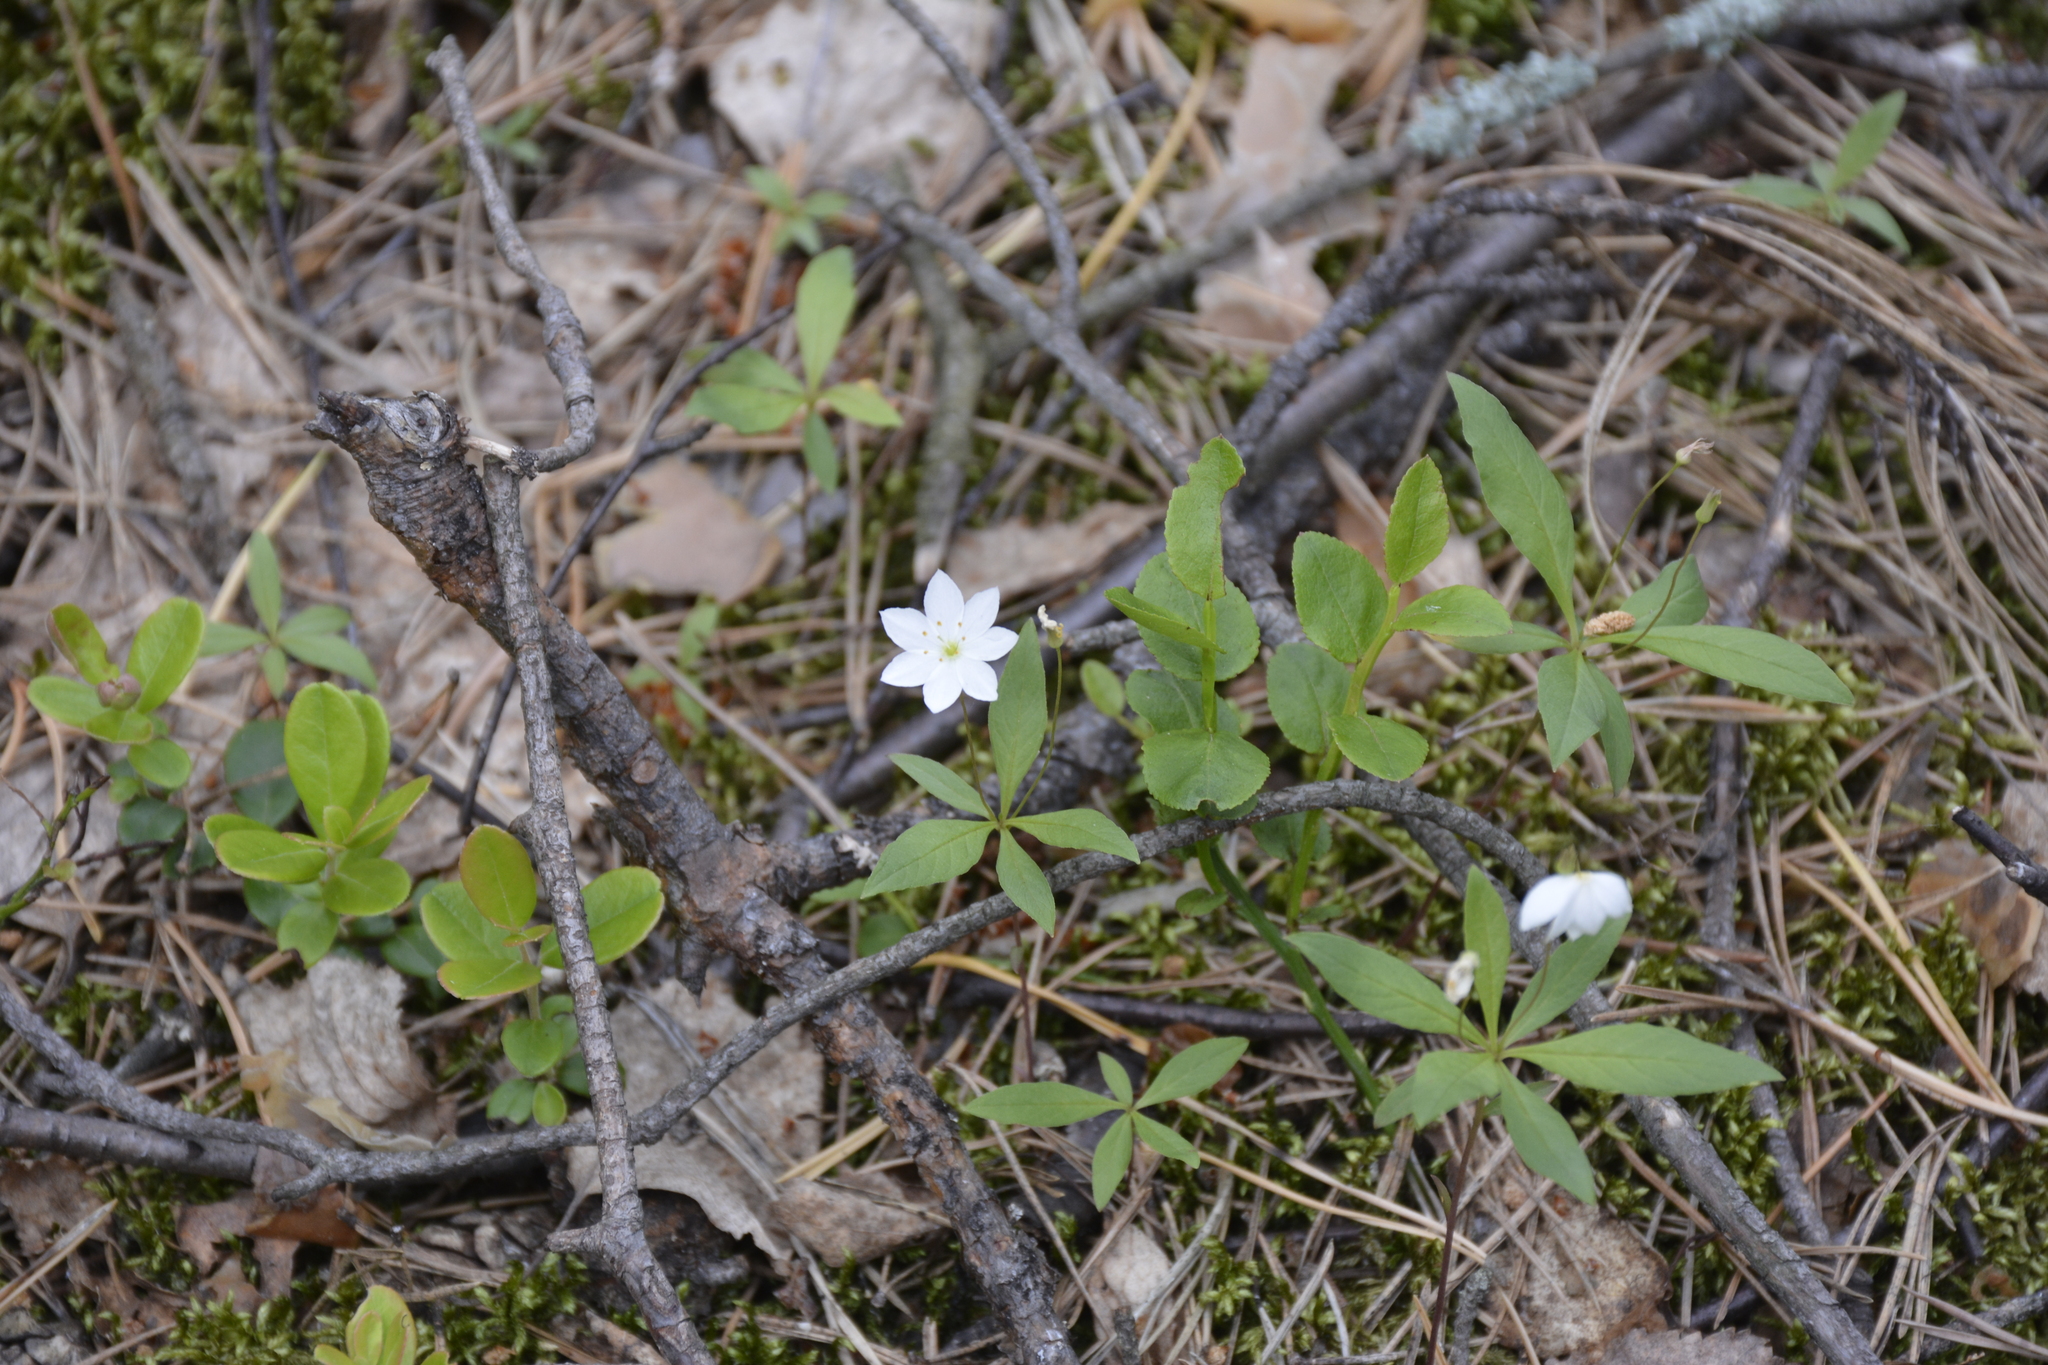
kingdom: Plantae
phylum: Tracheophyta
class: Magnoliopsida
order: Ericales
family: Primulaceae
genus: Lysimachia
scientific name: Lysimachia europaea
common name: Arctic starflower
